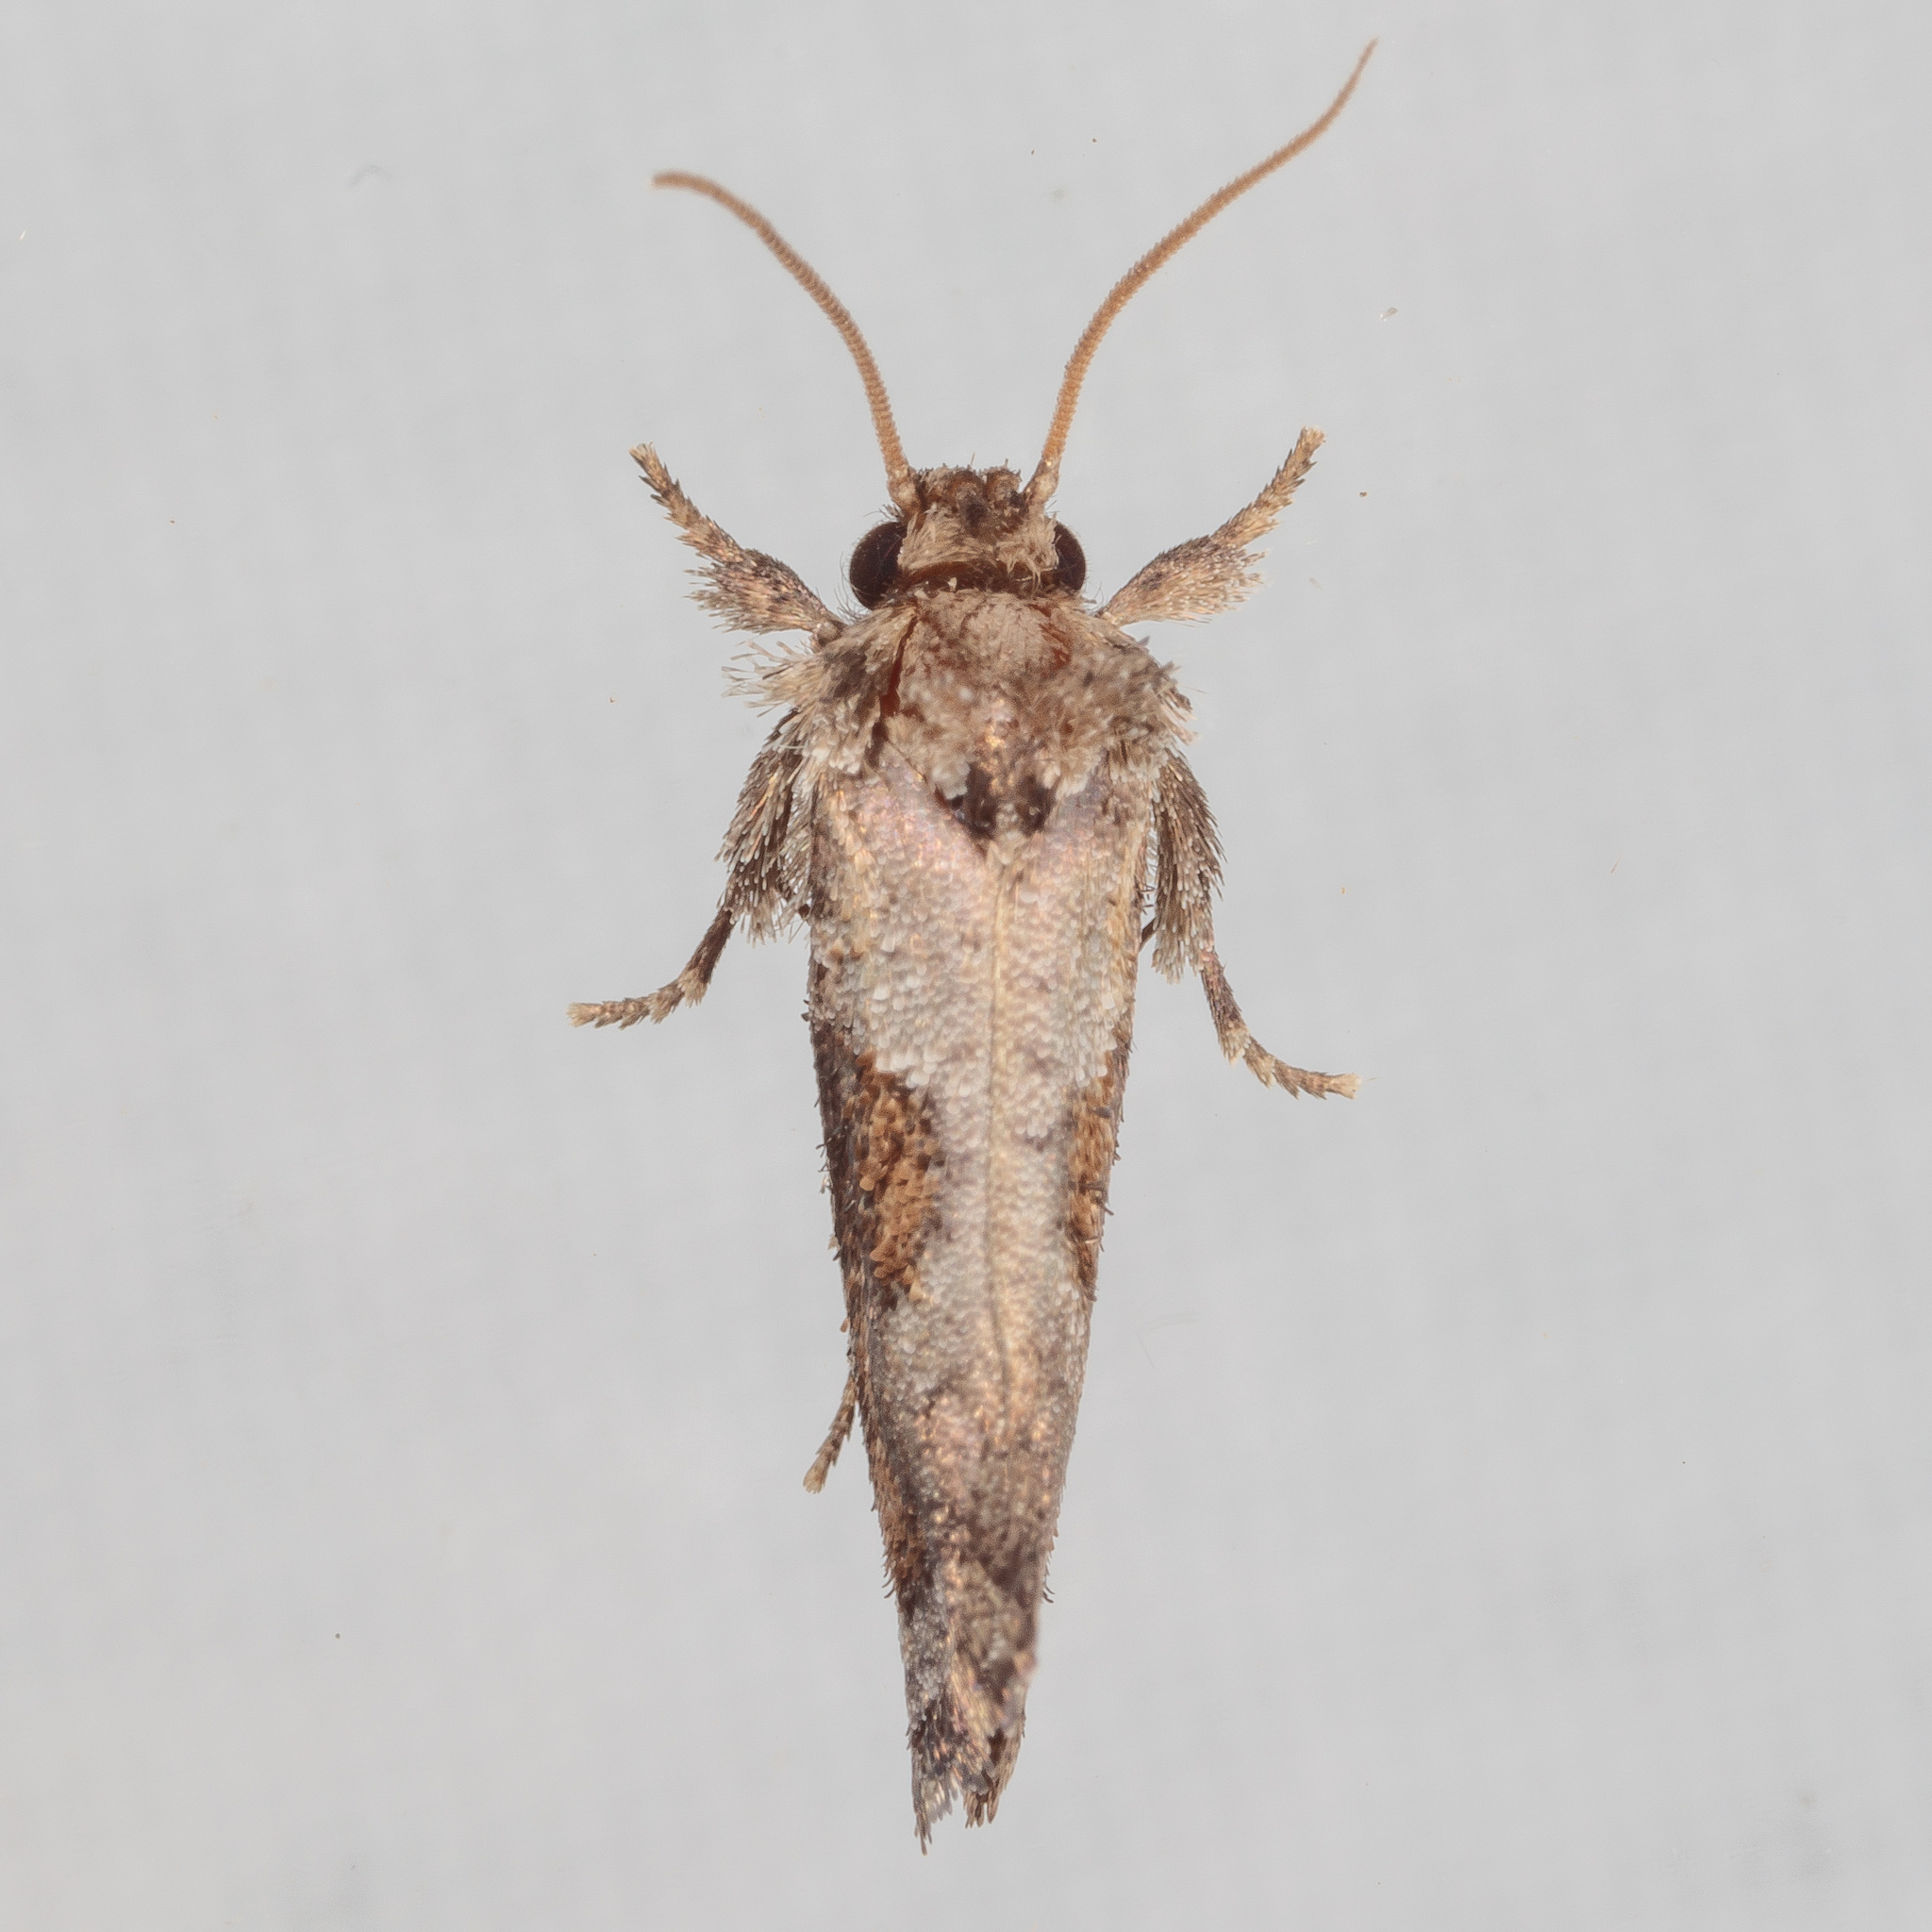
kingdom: Animalia
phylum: Arthropoda
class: Insecta
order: Lepidoptera
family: Tineidae
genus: Acrolophus
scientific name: Acrolophus piger
